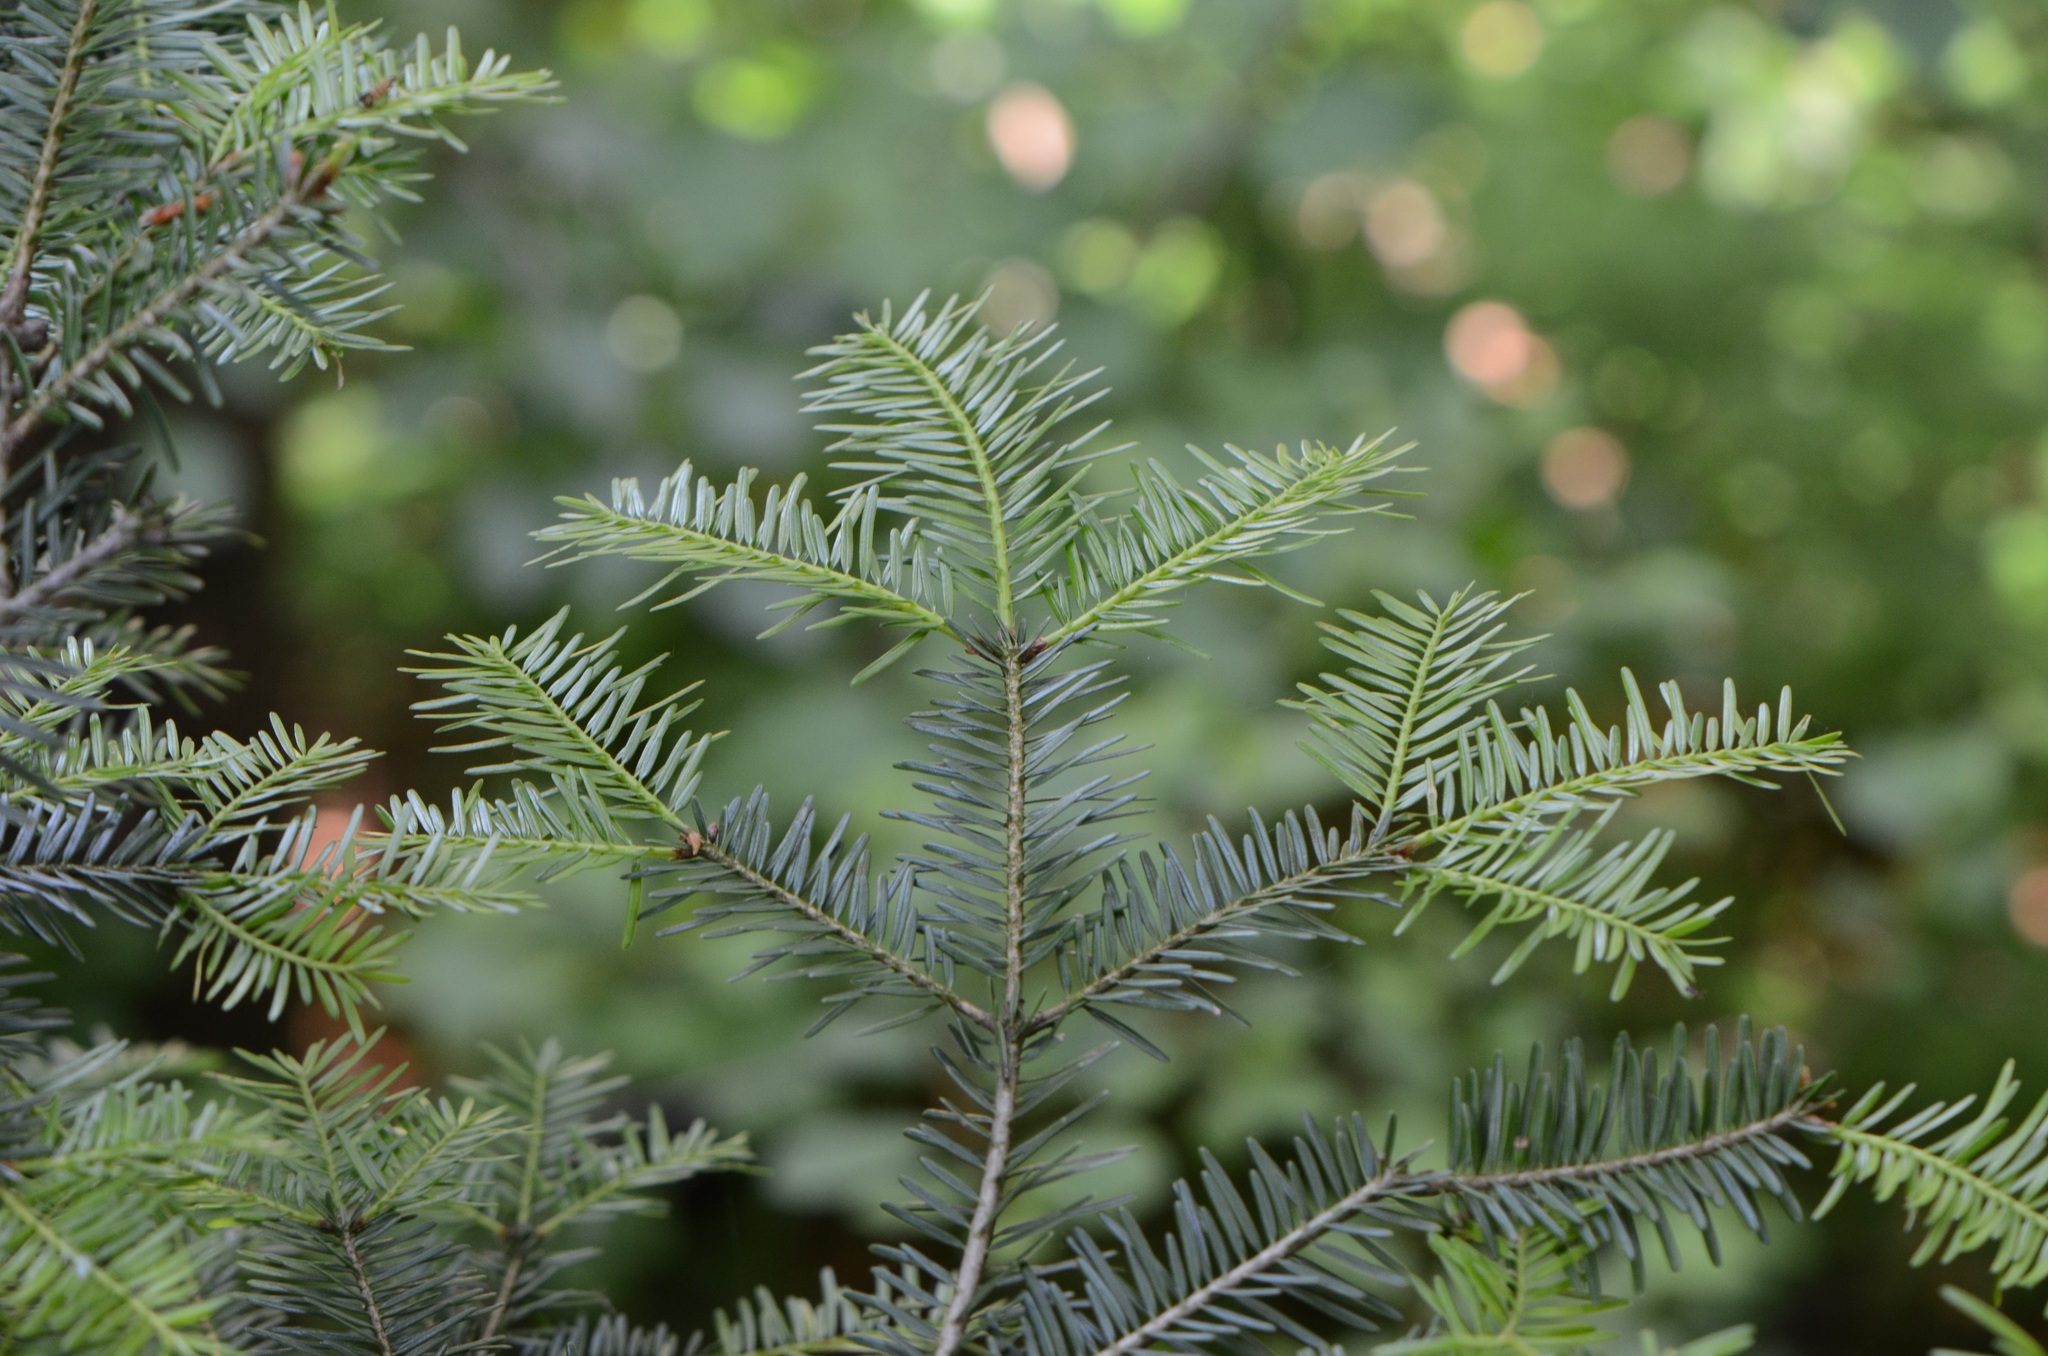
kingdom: Plantae
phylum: Tracheophyta
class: Pinopsida
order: Pinales
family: Pinaceae
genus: Abies
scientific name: Abies alba
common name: Silver fir
